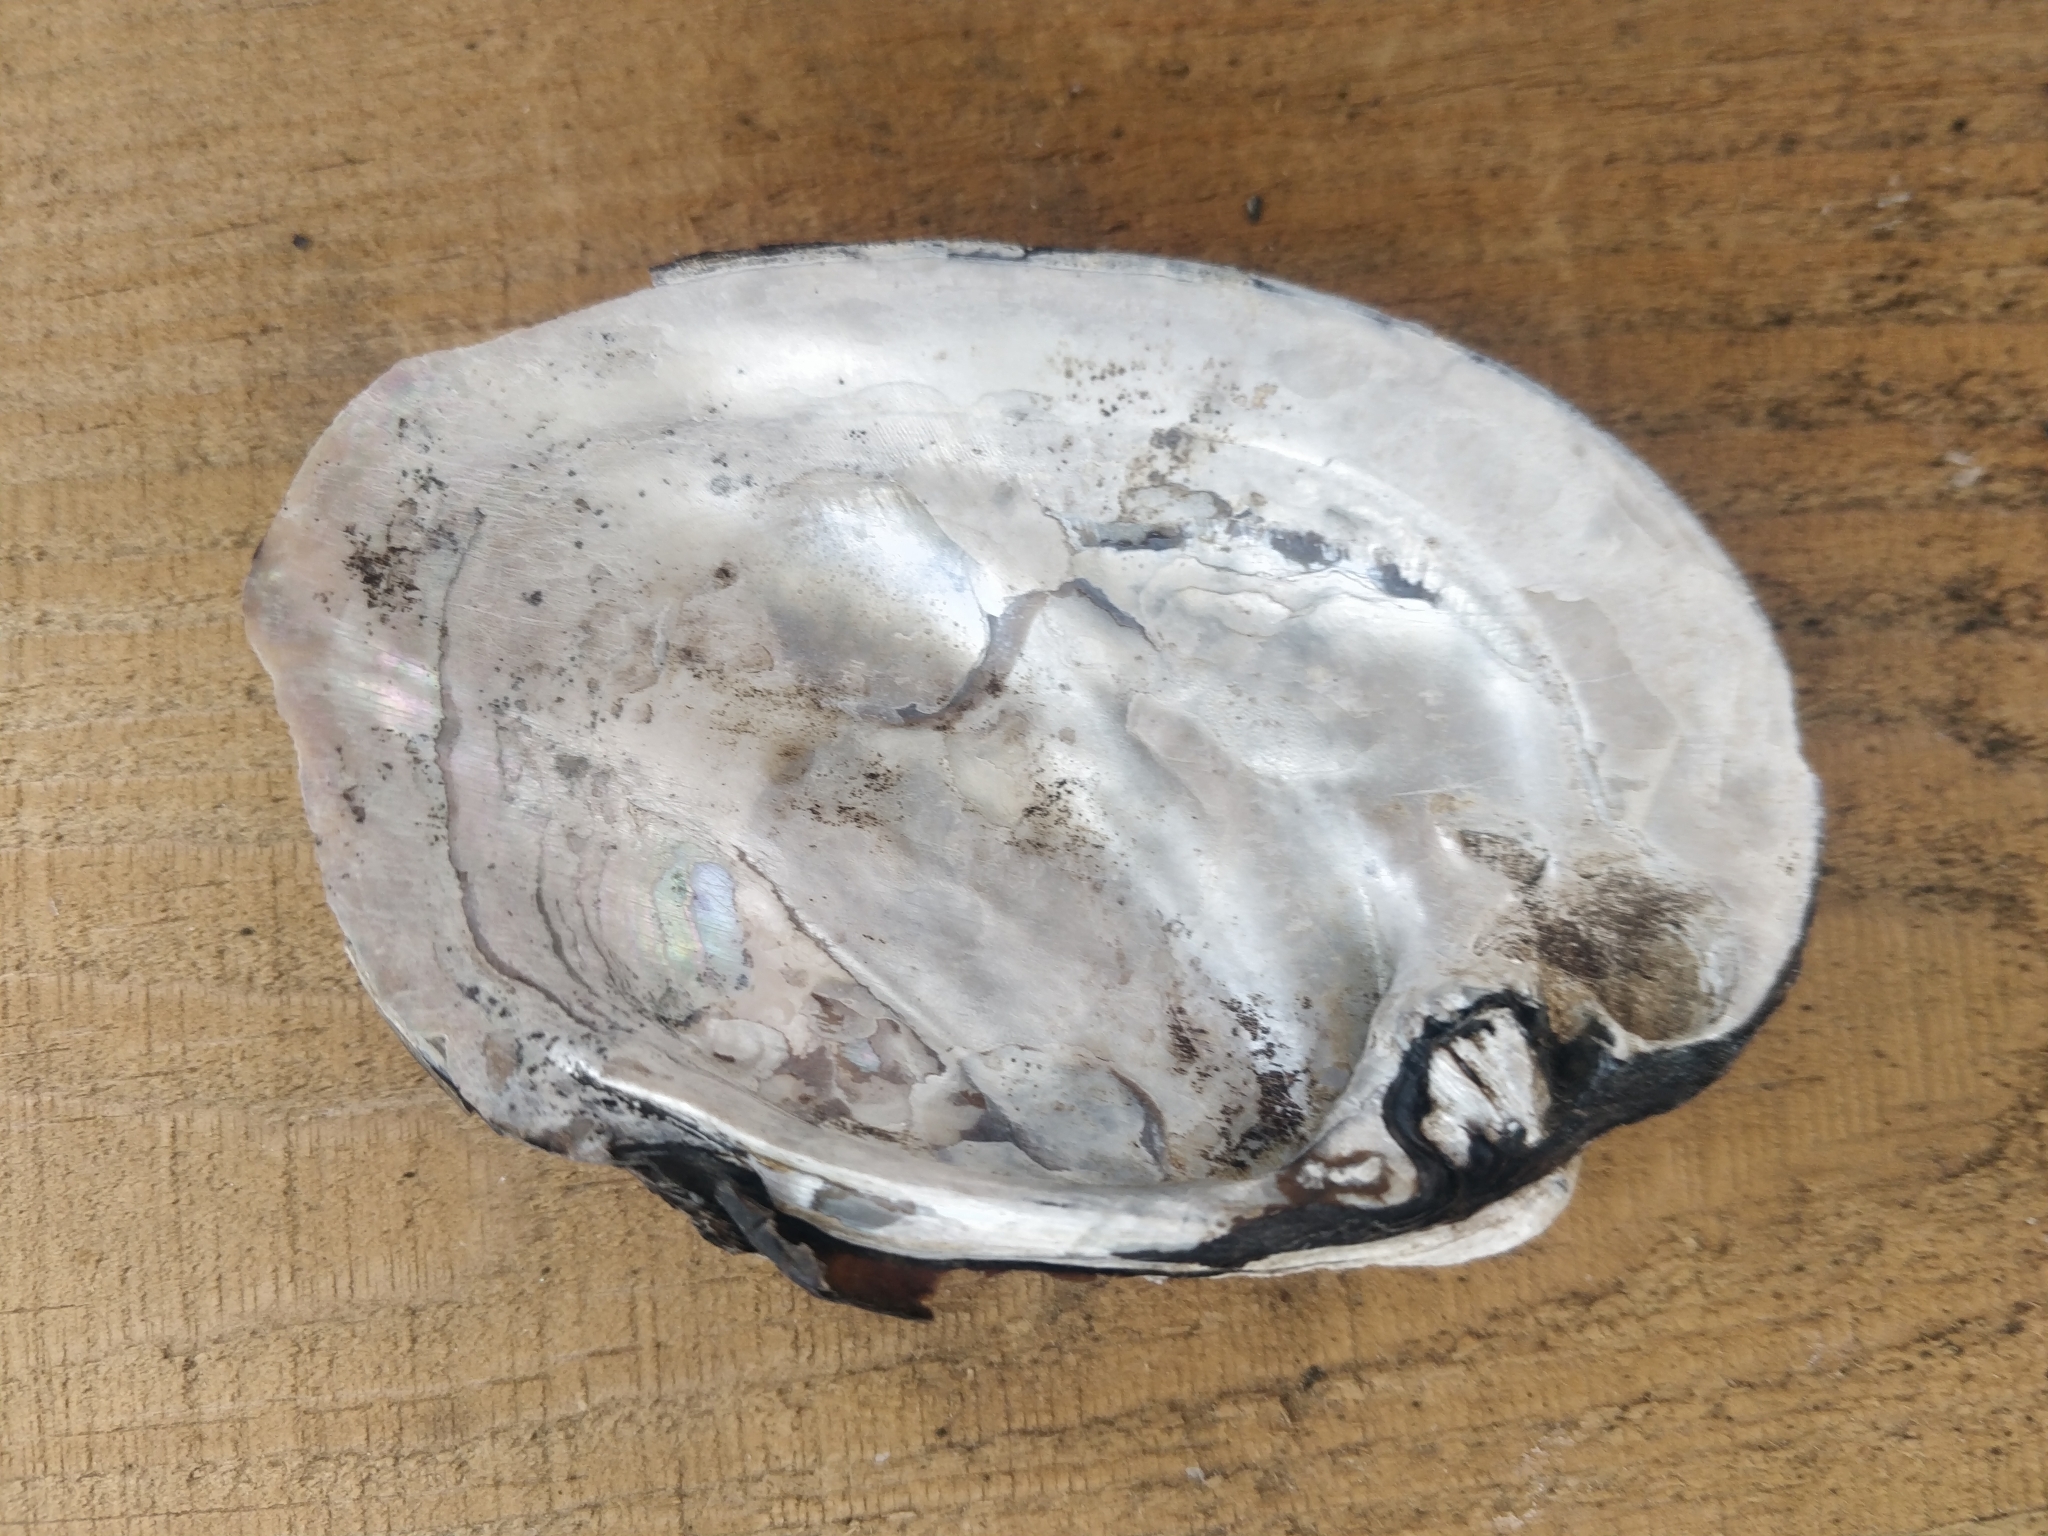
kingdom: Animalia
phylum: Mollusca
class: Bivalvia
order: Unionida
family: Unionidae
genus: Amblema
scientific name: Amblema plicata
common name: Threeridge
